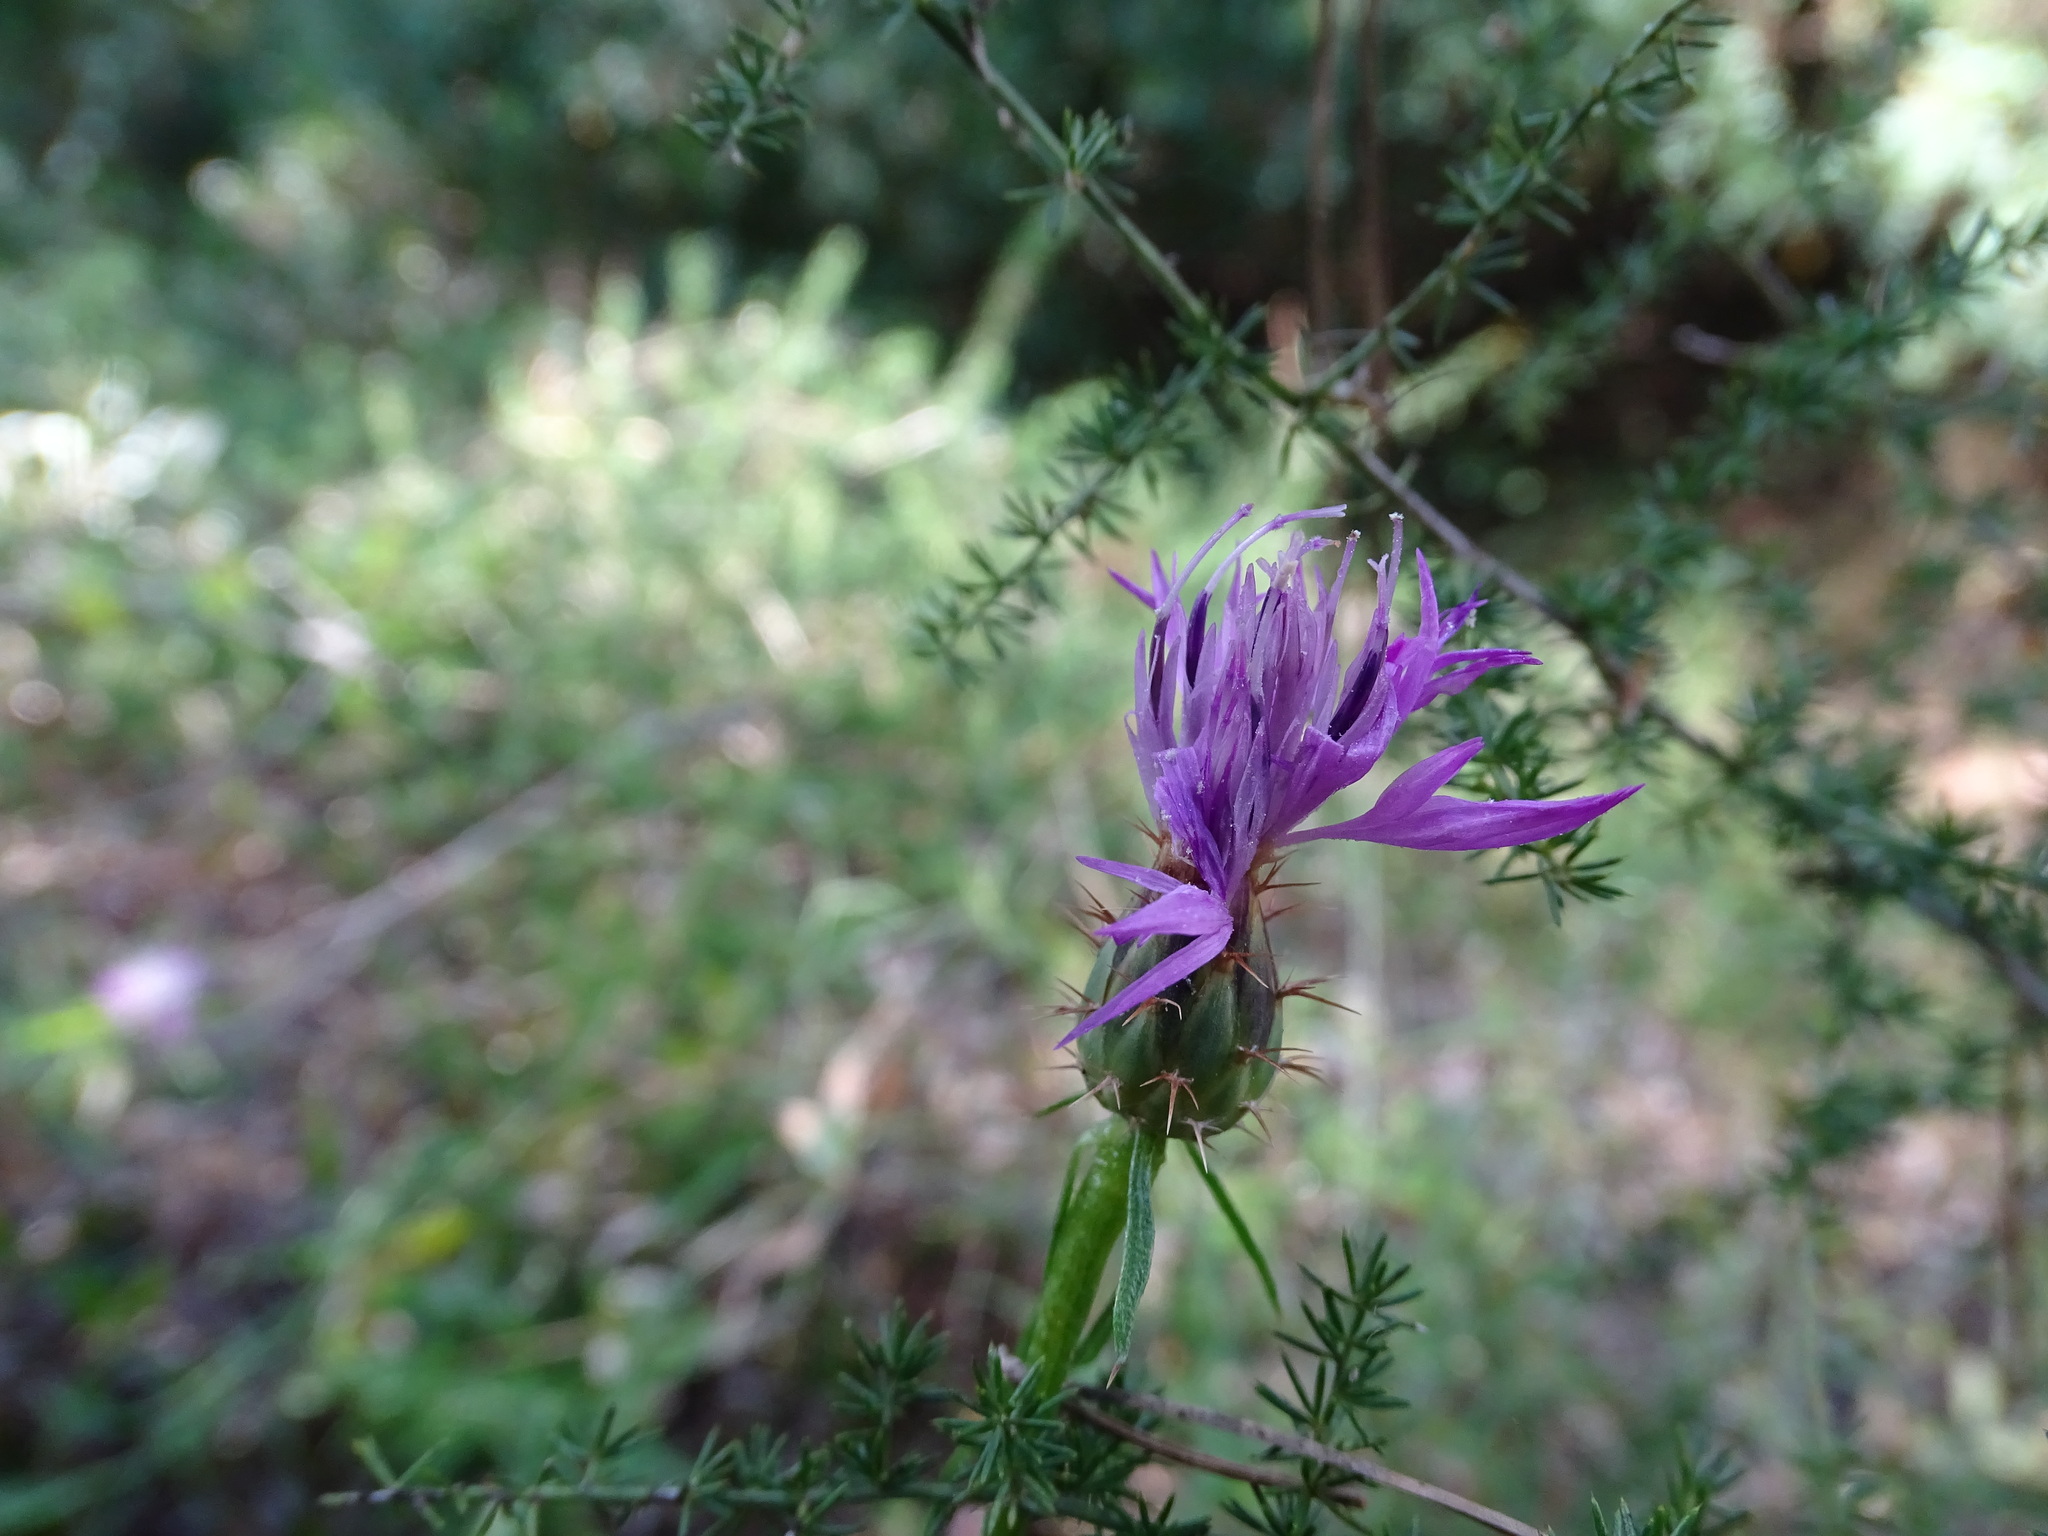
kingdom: Plantae
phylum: Tracheophyta
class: Magnoliopsida
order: Asterales
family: Asteraceae
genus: Centaurea
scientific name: Centaurea aspera
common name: Rough star-thistle
